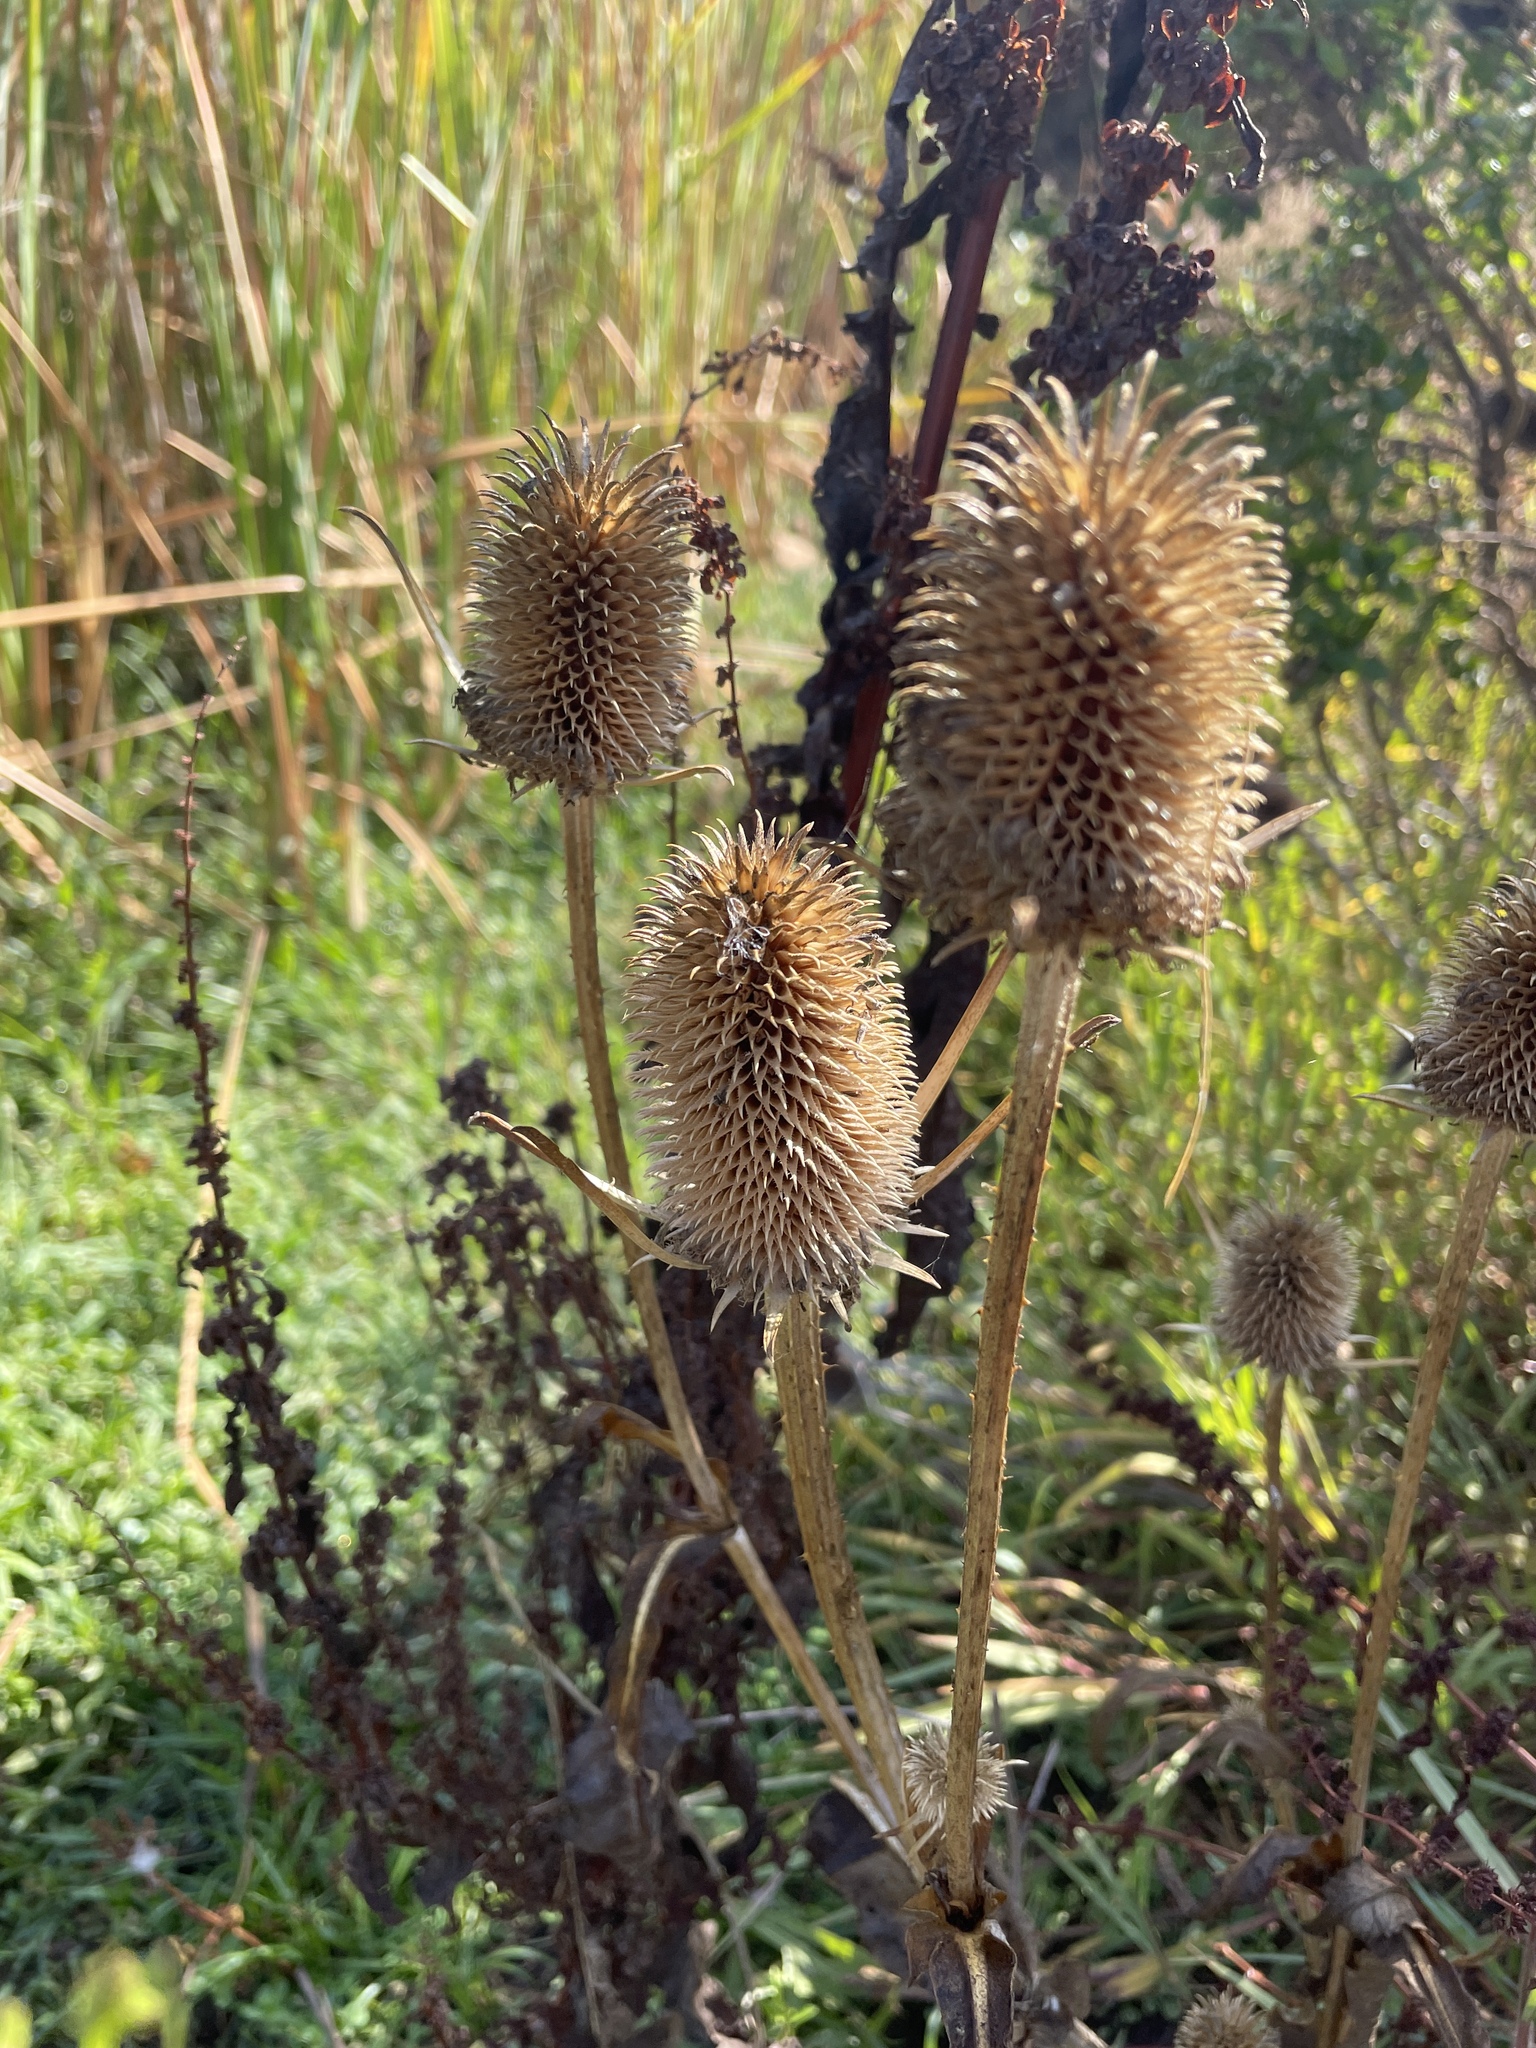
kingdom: Plantae
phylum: Tracheophyta
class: Magnoliopsida
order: Dipsacales
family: Caprifoliaceae
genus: Dipsacus
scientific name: Dipsacus sativus
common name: Fuller's teasel
